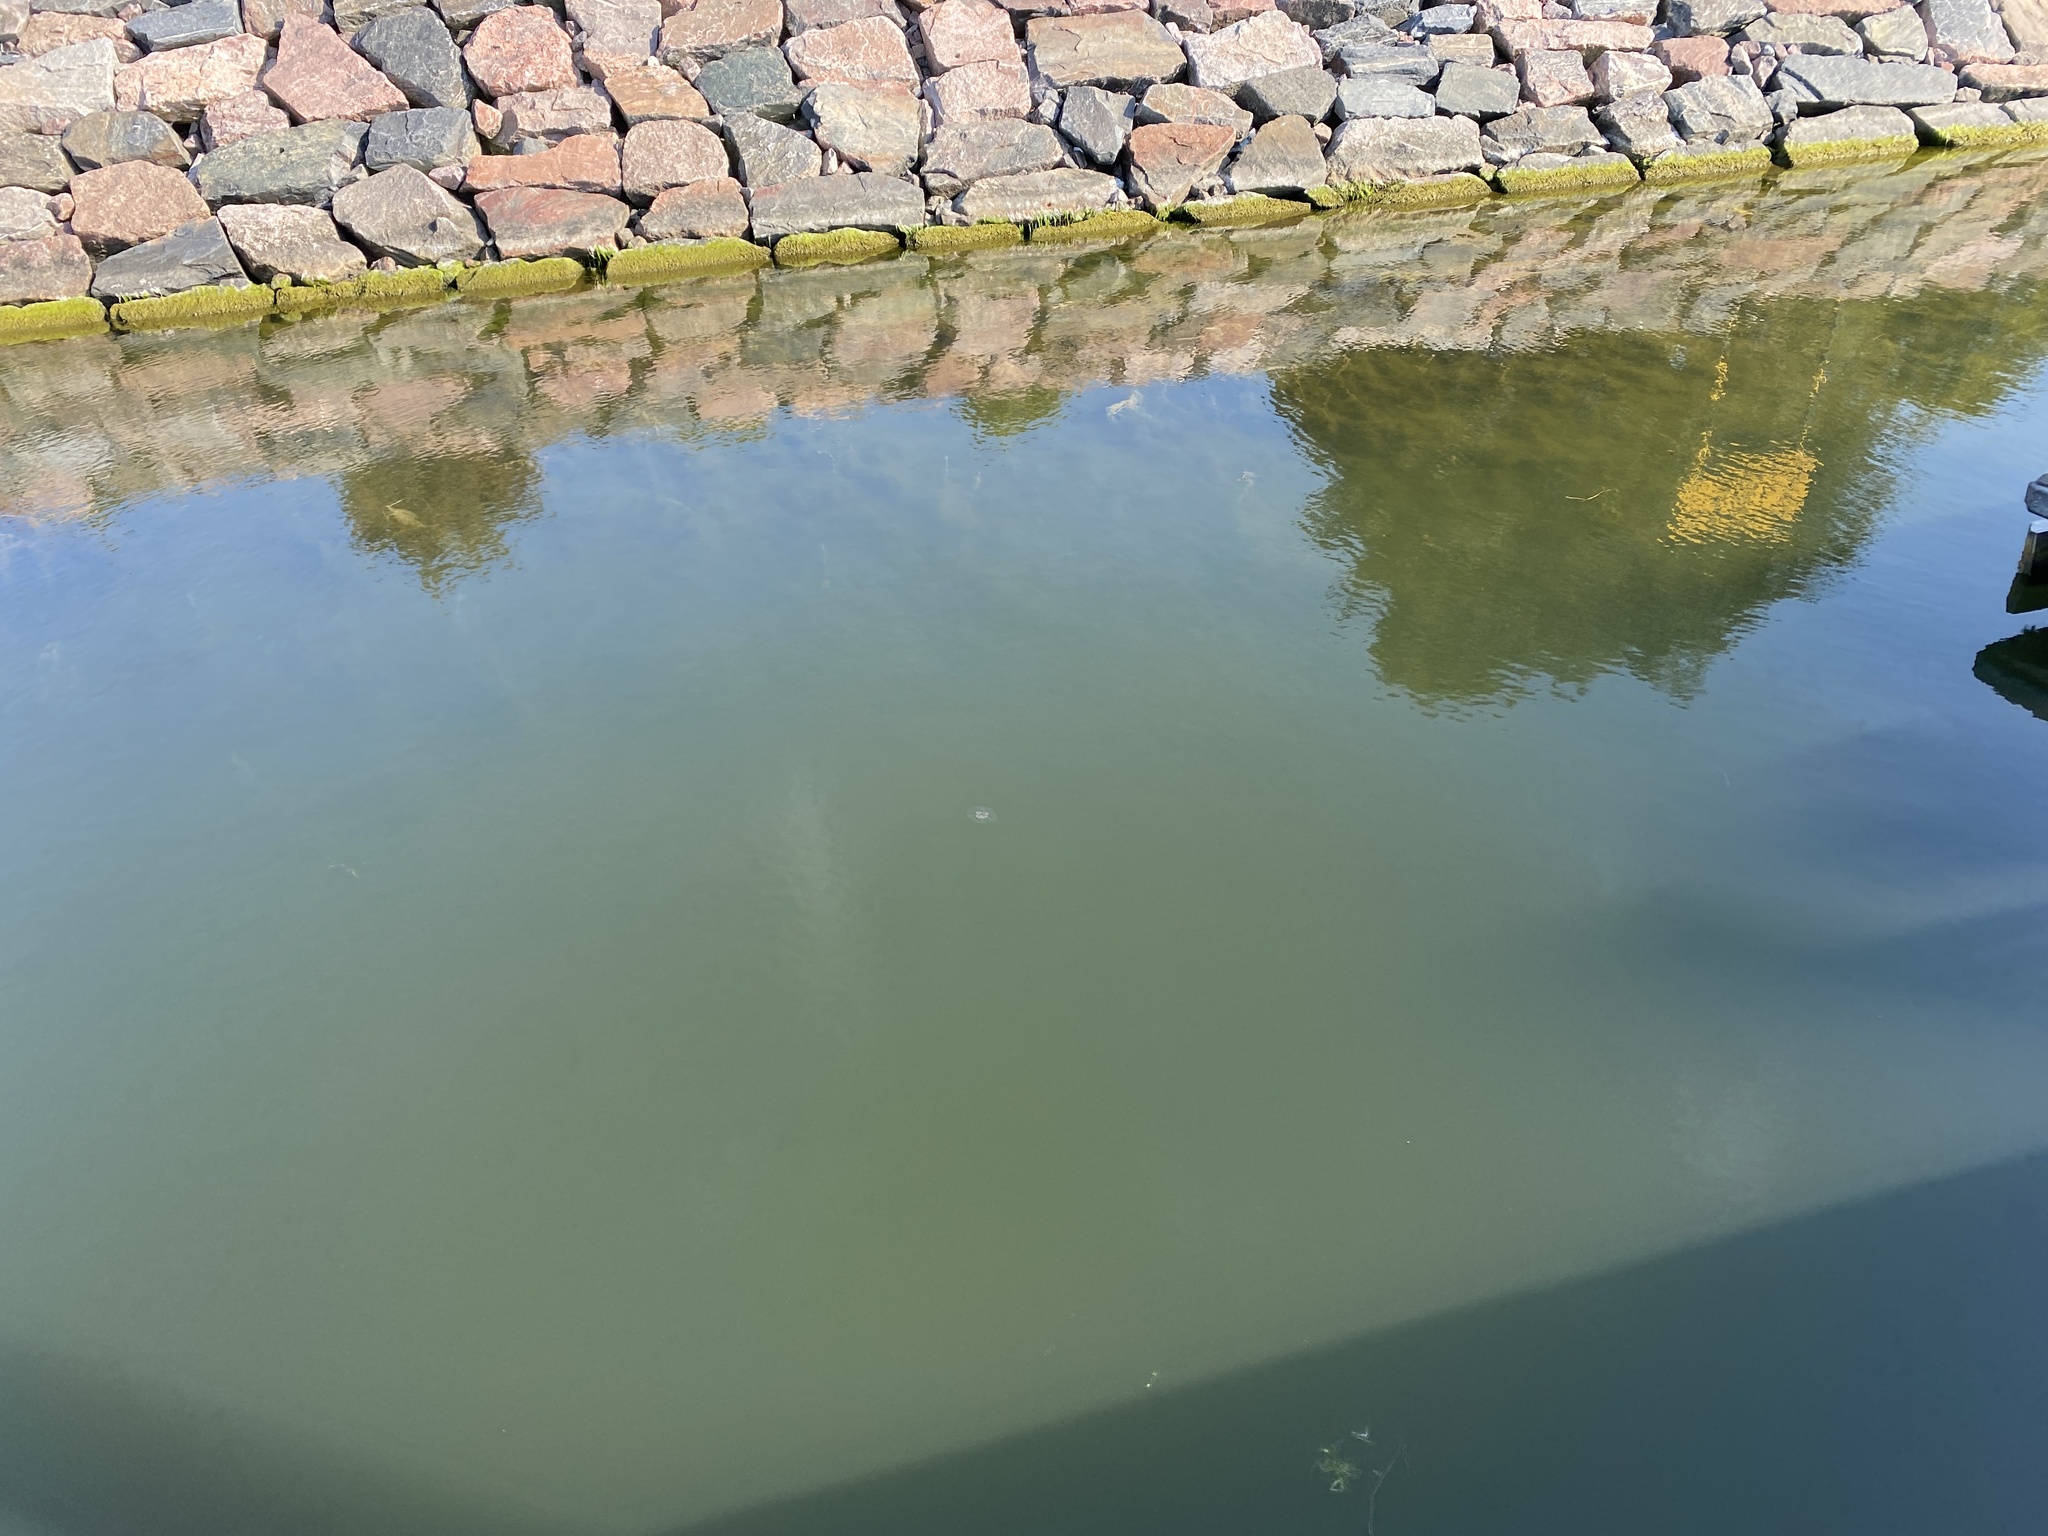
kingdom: Animalia
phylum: Cnidaria
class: Scyphozoa
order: Semaeostomeae
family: Ulmaridae
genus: Aurelia
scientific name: Aurelia aurita
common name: Moon jellyfish
